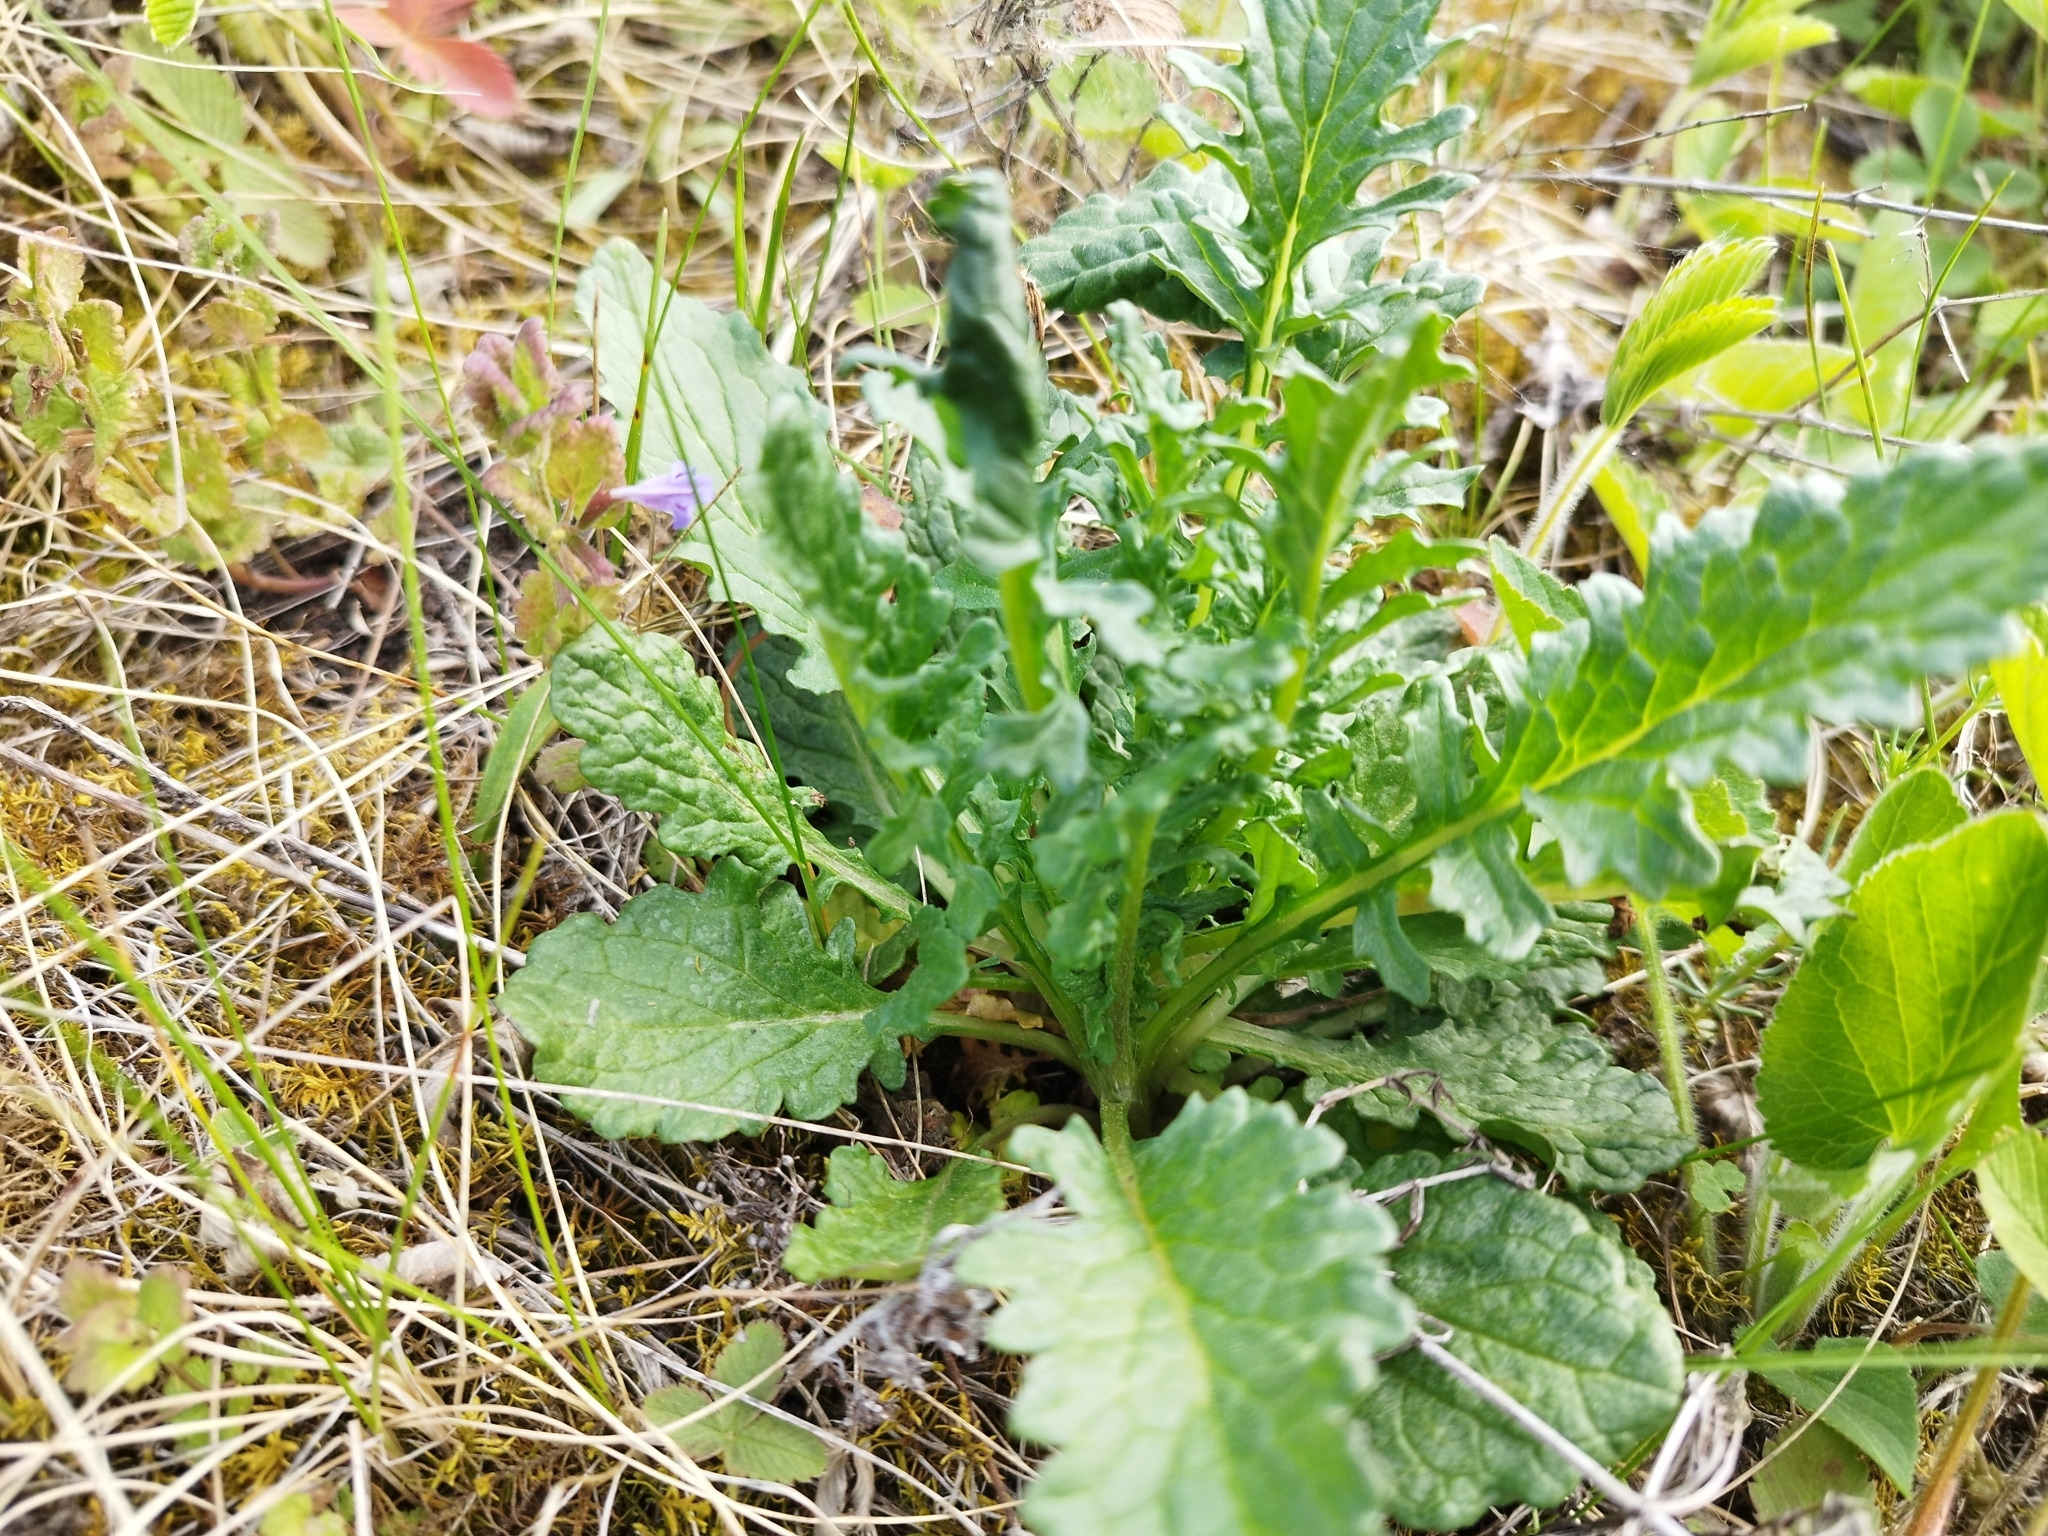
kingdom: Plantae
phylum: Tracheophyta
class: Magnoliopsida
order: Asterales
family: Asteraceae
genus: Jacobaea
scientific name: Jacobaea vulgaris
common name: Stinking willie
